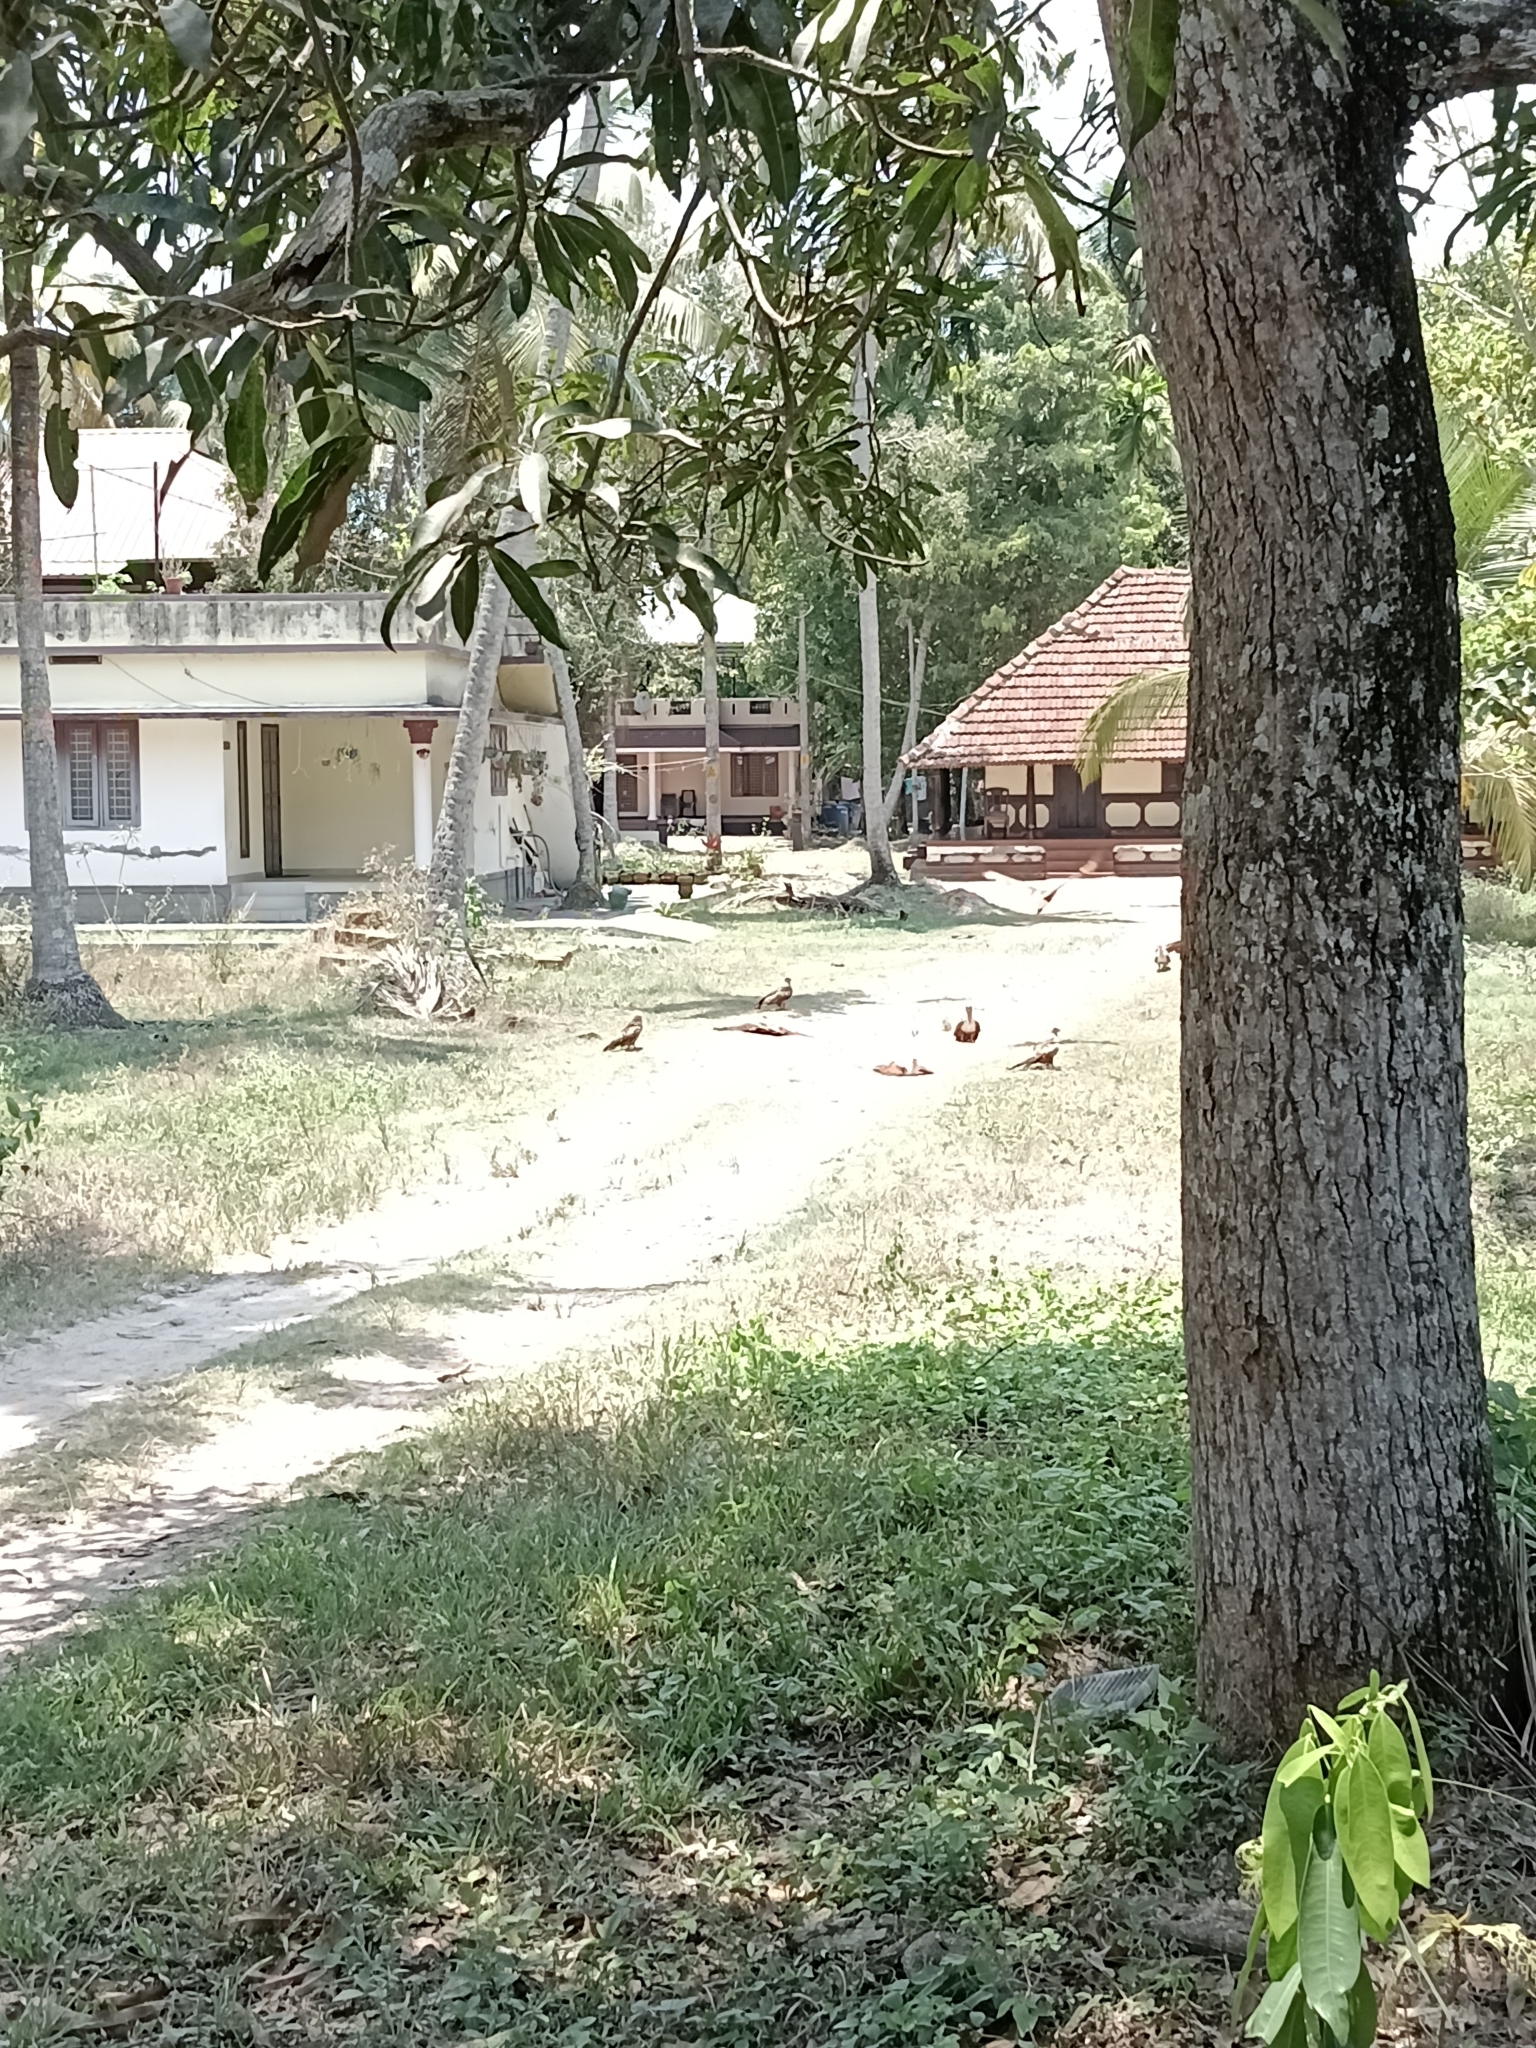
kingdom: Animalia
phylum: Chordata
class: Aves
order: Accipitriformes
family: Accipitridae
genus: Haliastur
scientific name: Haliastur indus
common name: Brahminy kite
